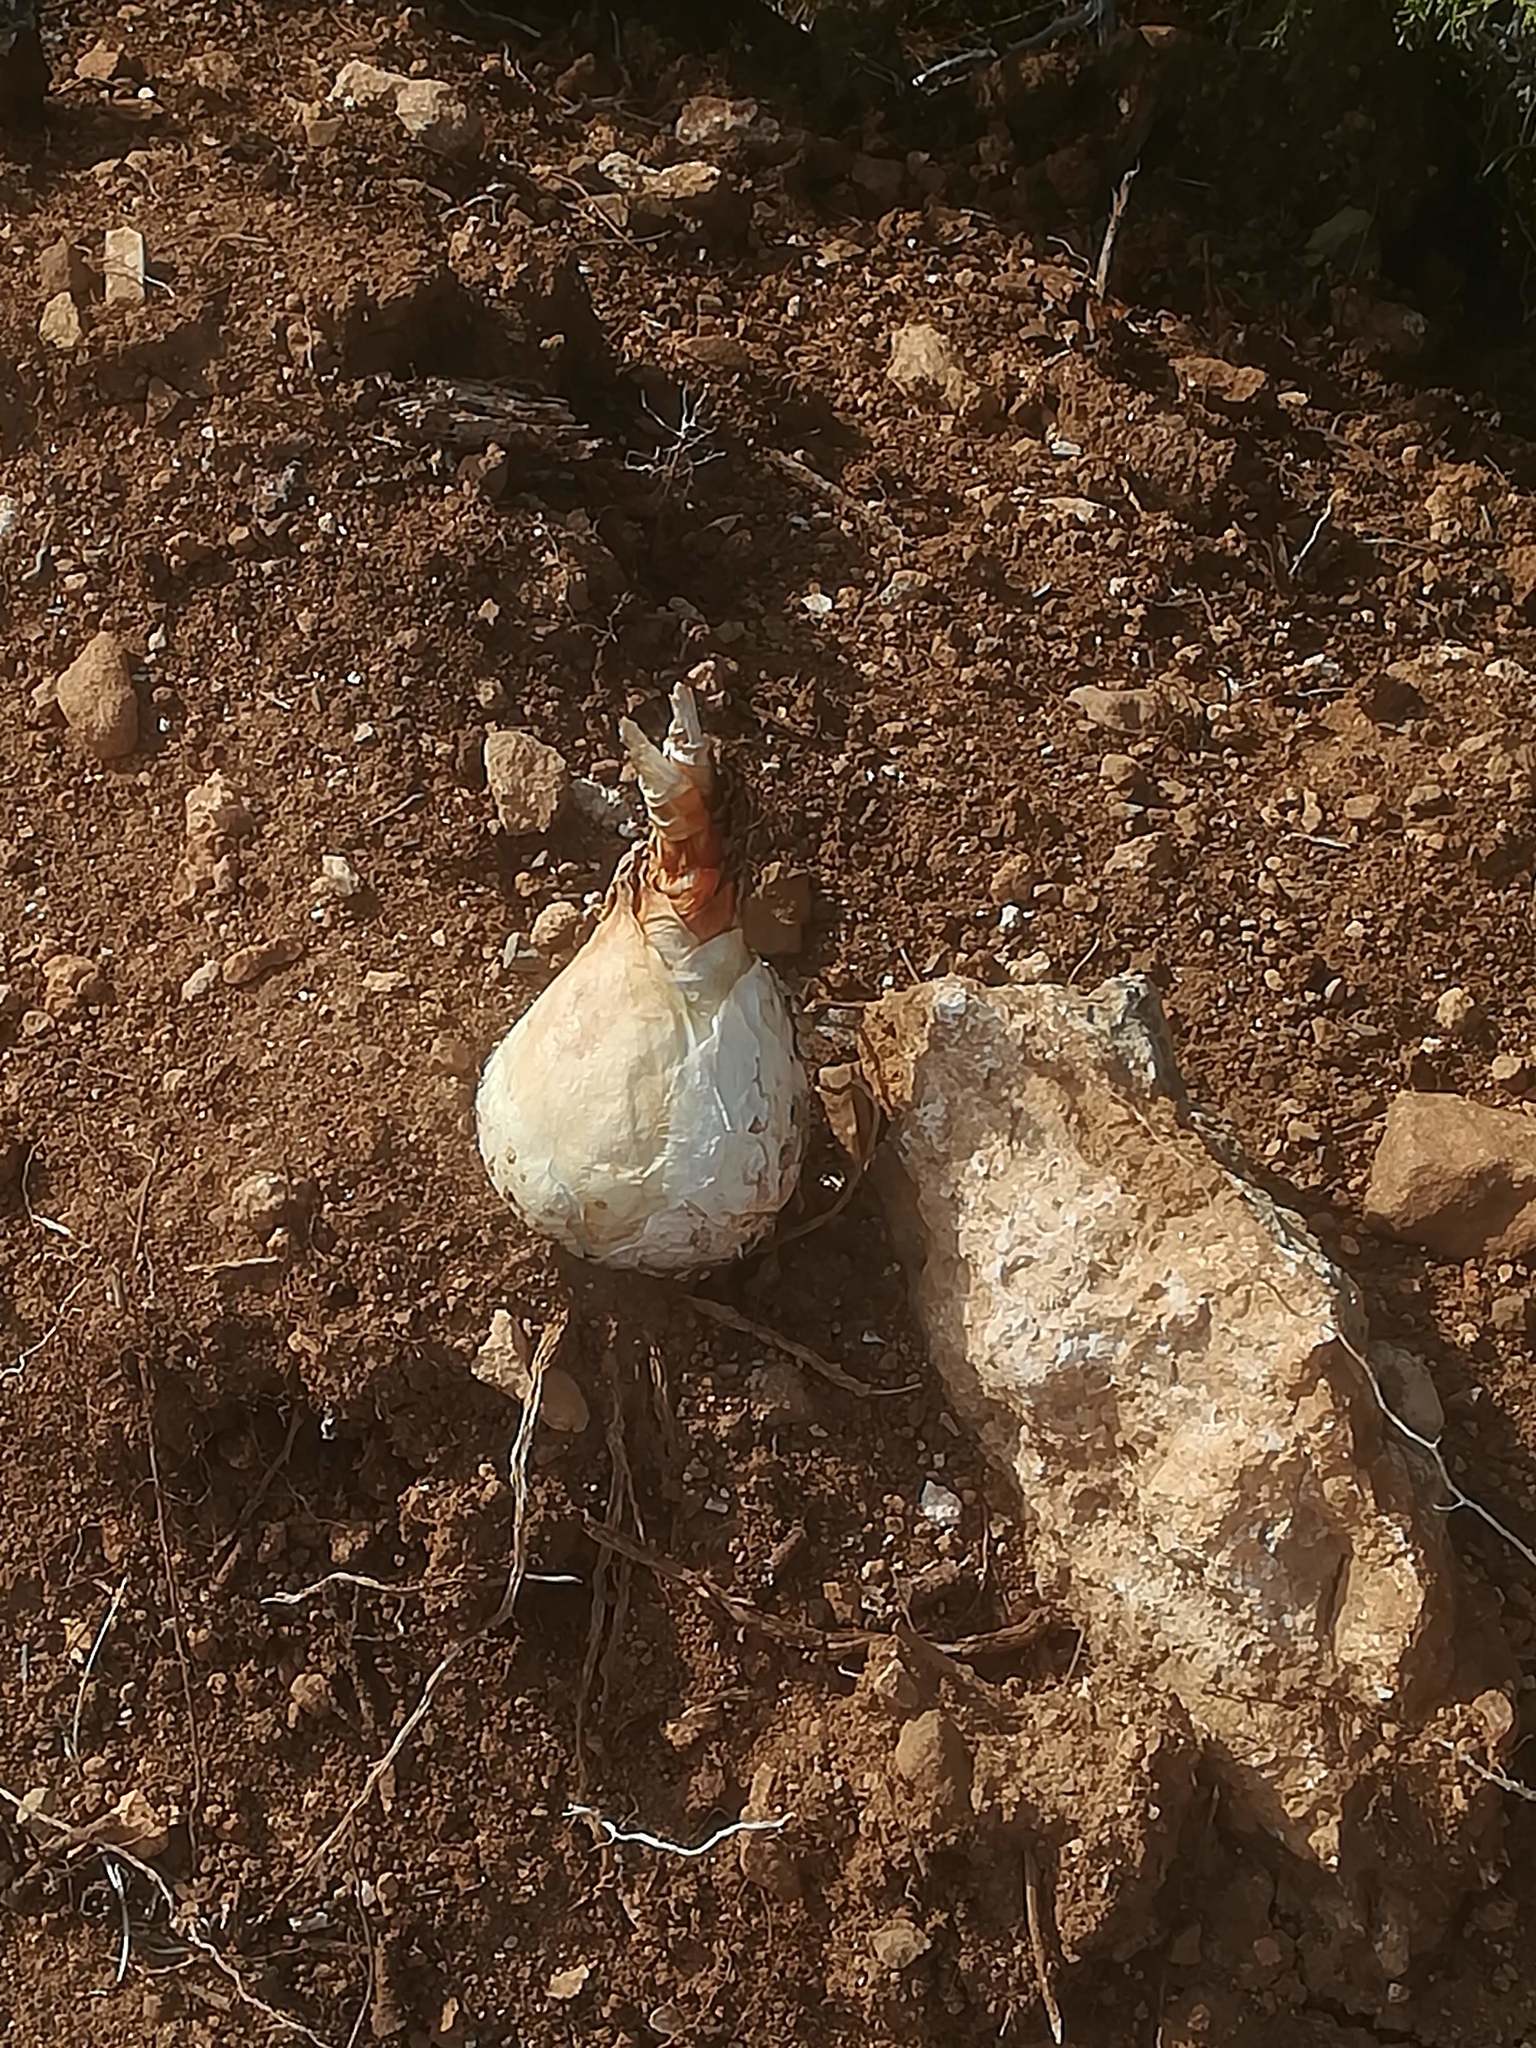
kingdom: Plantae
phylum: Tracheophyta
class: Liliopsida
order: Asparagales
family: Asparagaceae
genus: Drimia
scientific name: Drimia aphylla
